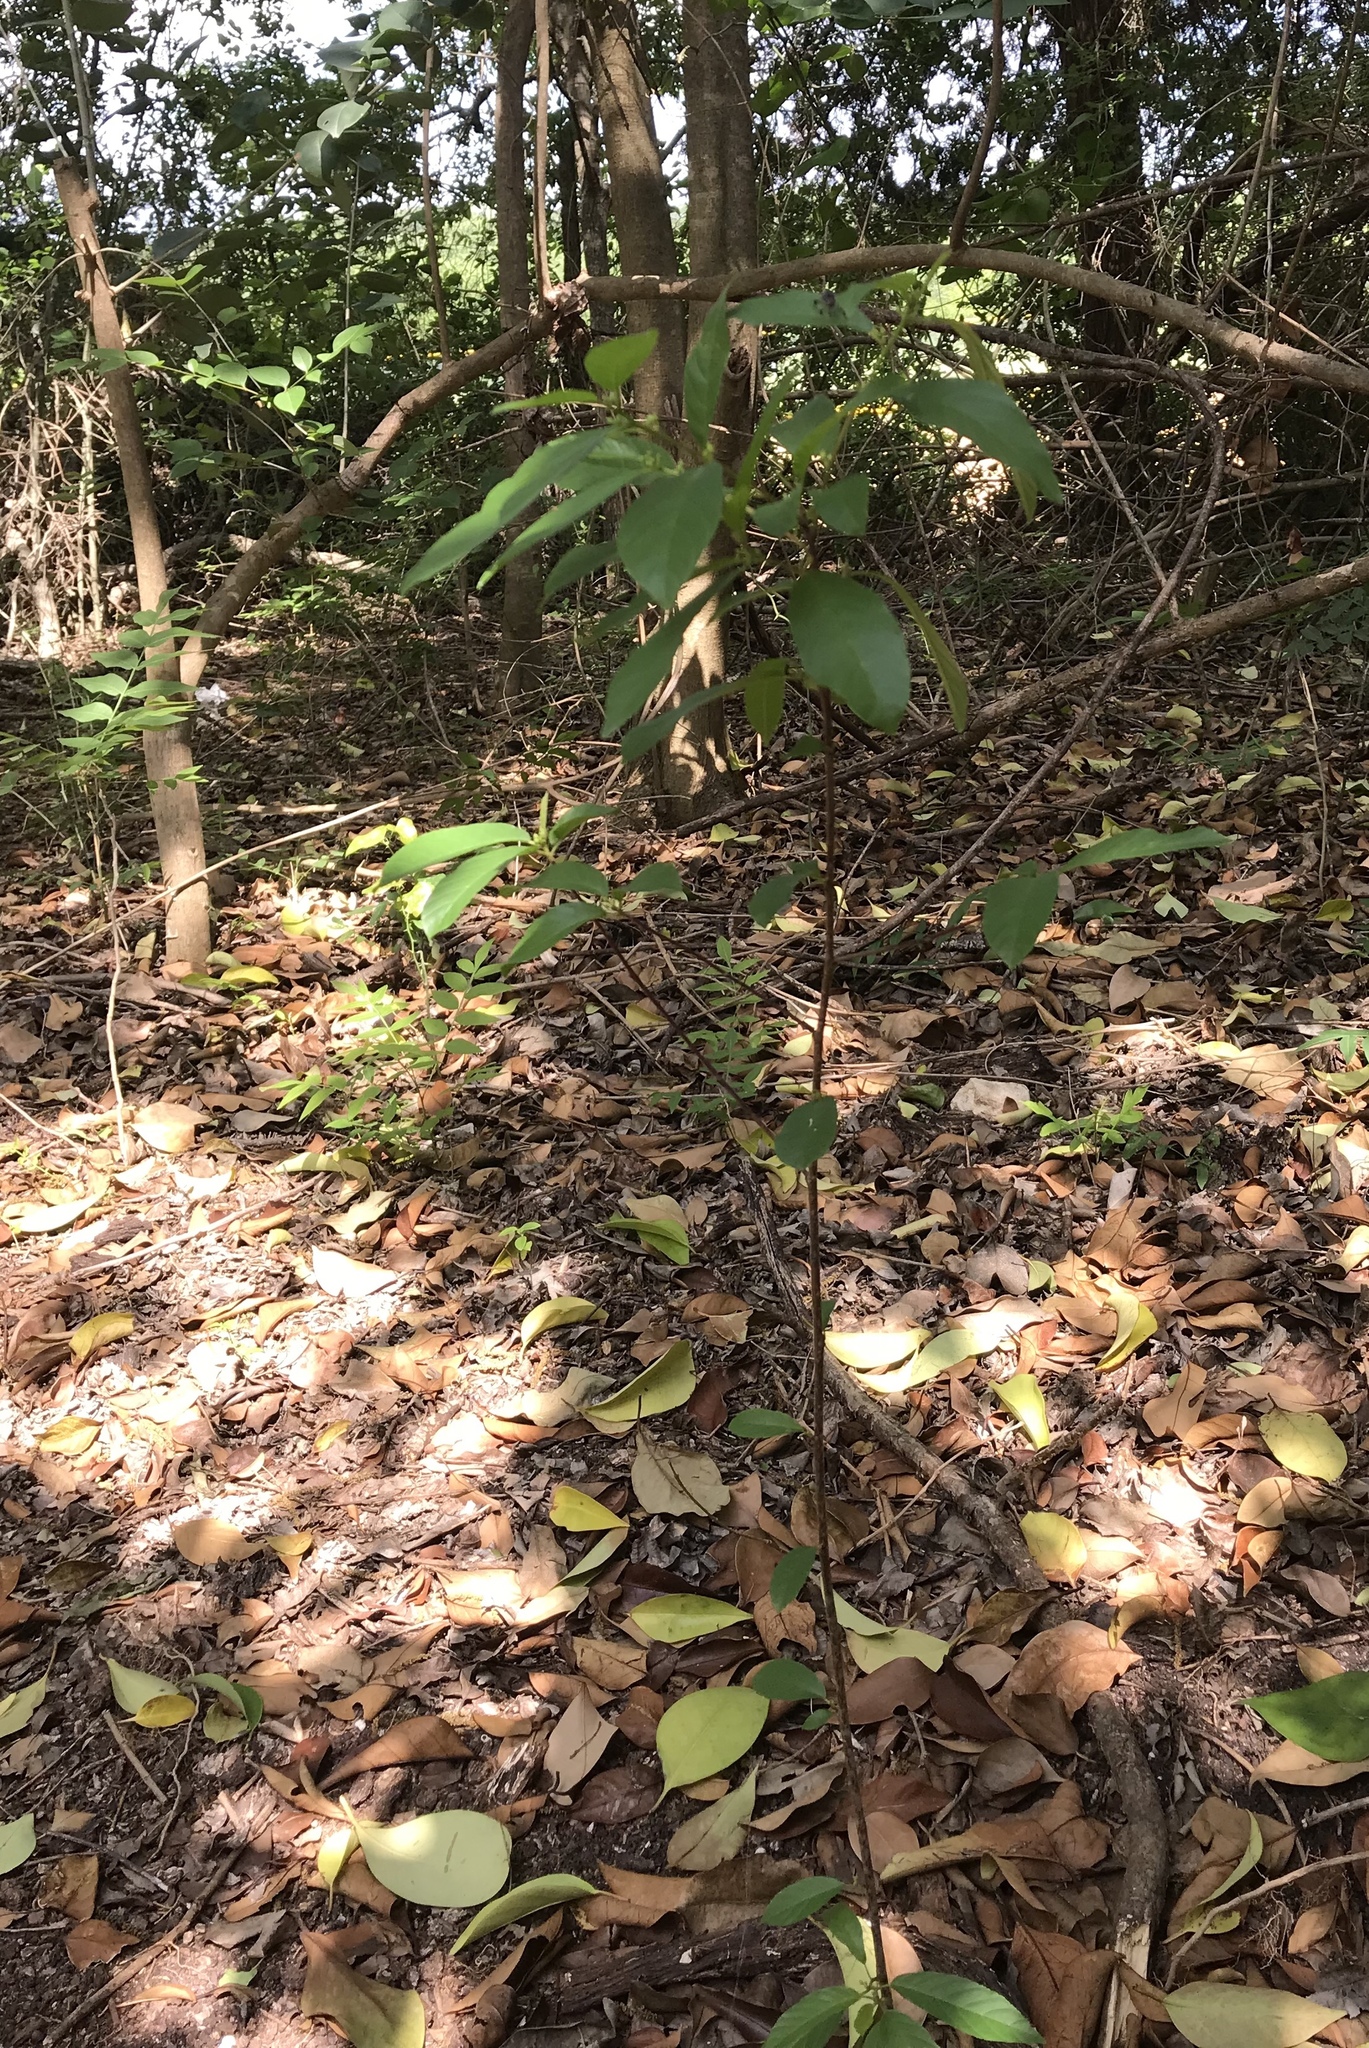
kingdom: Plantae
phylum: Tracheophyta
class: Magnoliopsida
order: Rosales
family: Rhamnaceae
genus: Frangula
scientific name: Frangula caroliniana
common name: Carolina buckthorn
